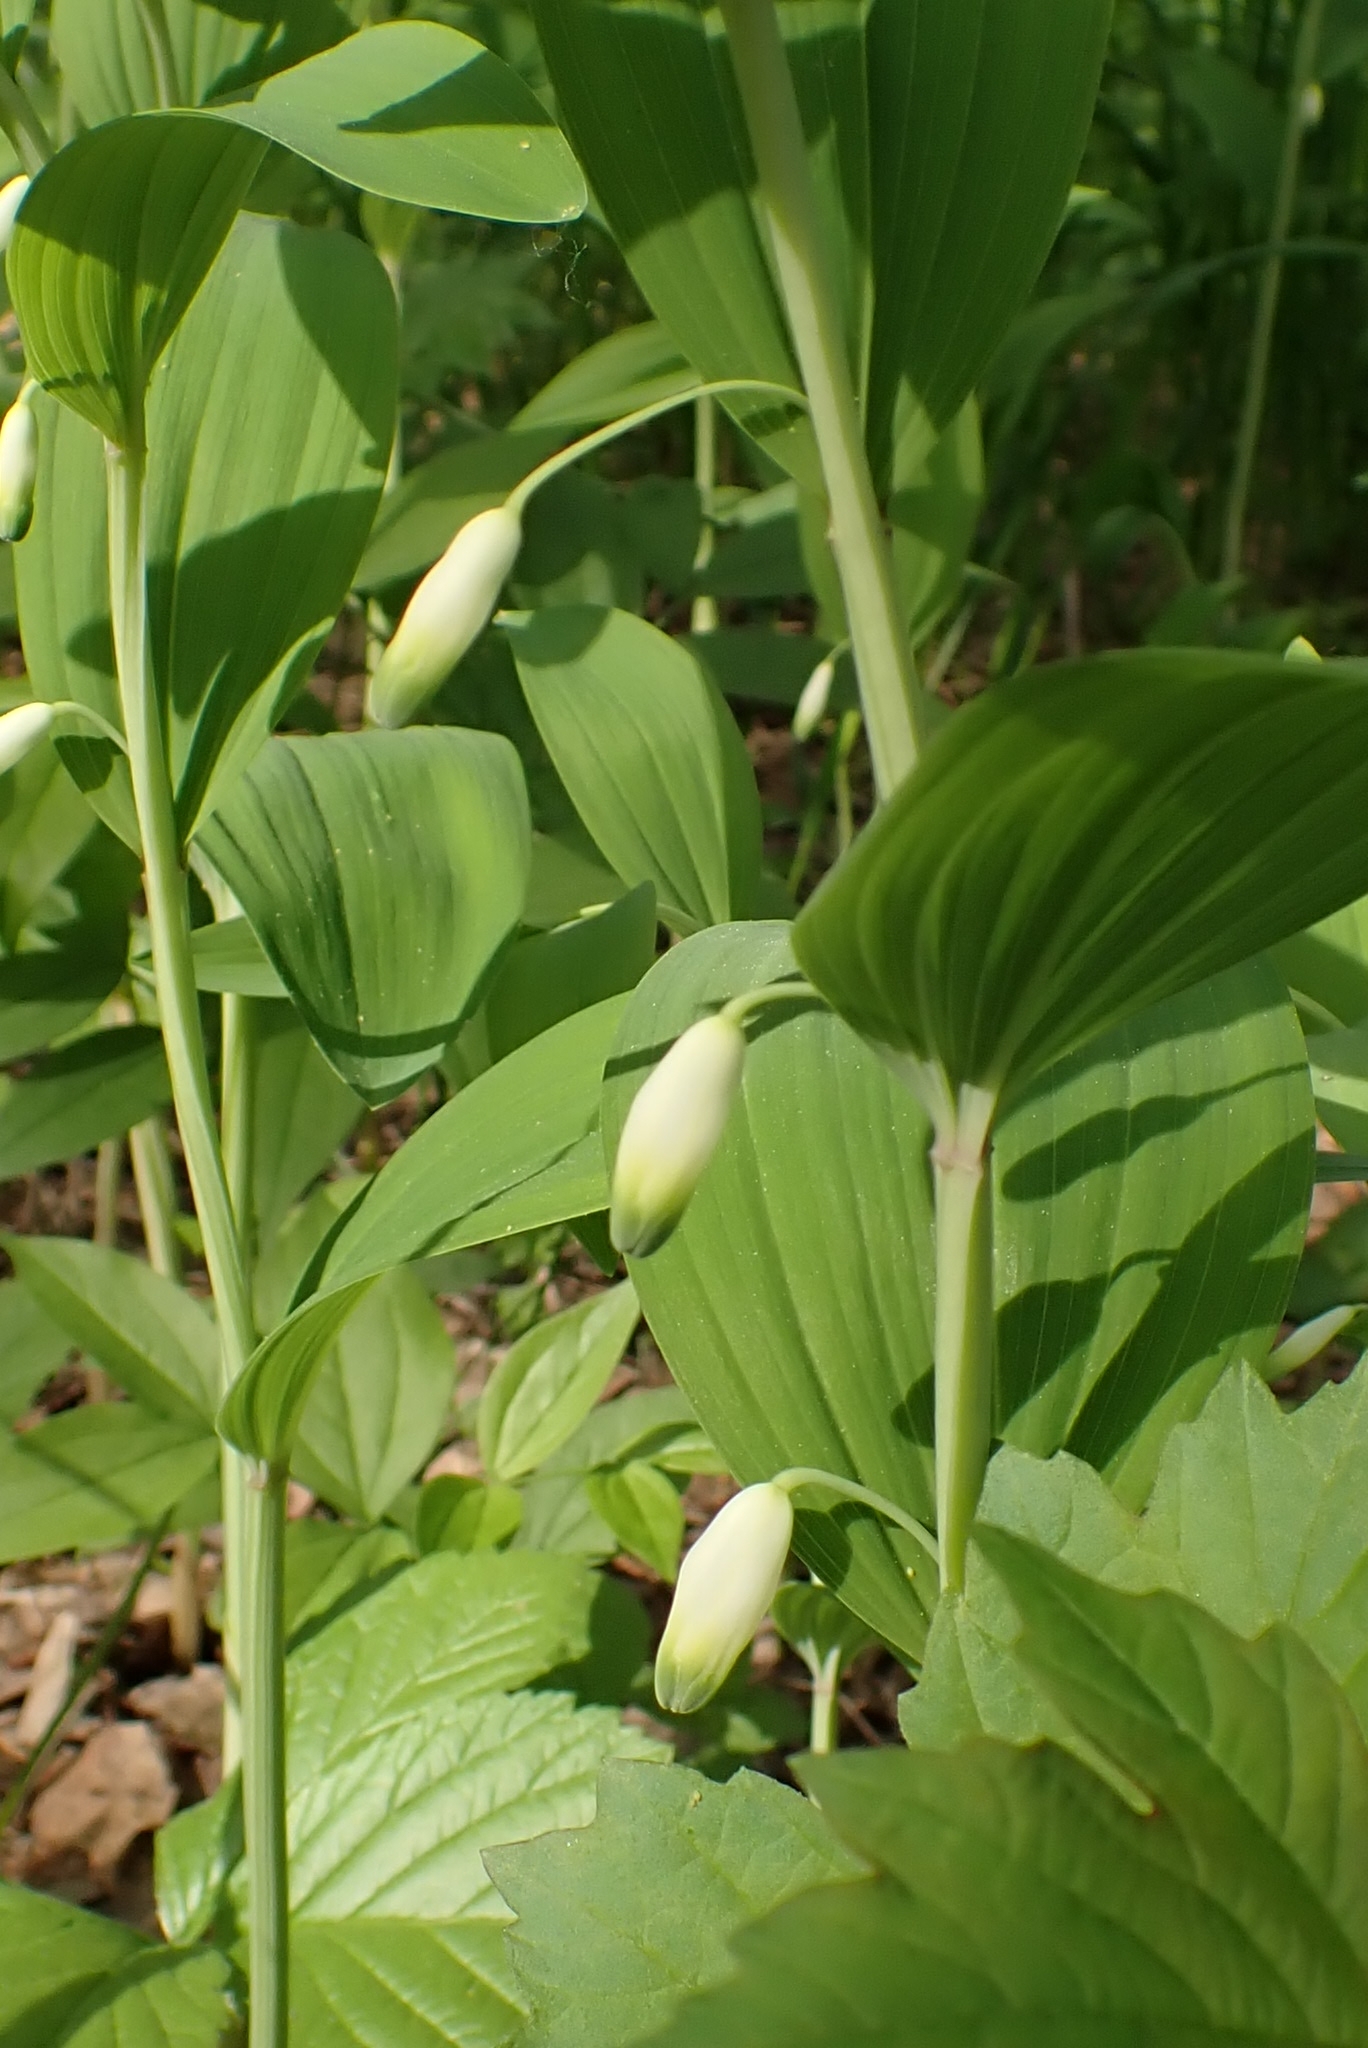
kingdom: Plantae
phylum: Tracheophyta
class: Liliopsida
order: Asparagales
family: Asparagaceae
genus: Polygonatum
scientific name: Polygonatum odoratum
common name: Angular solomon's-seal
